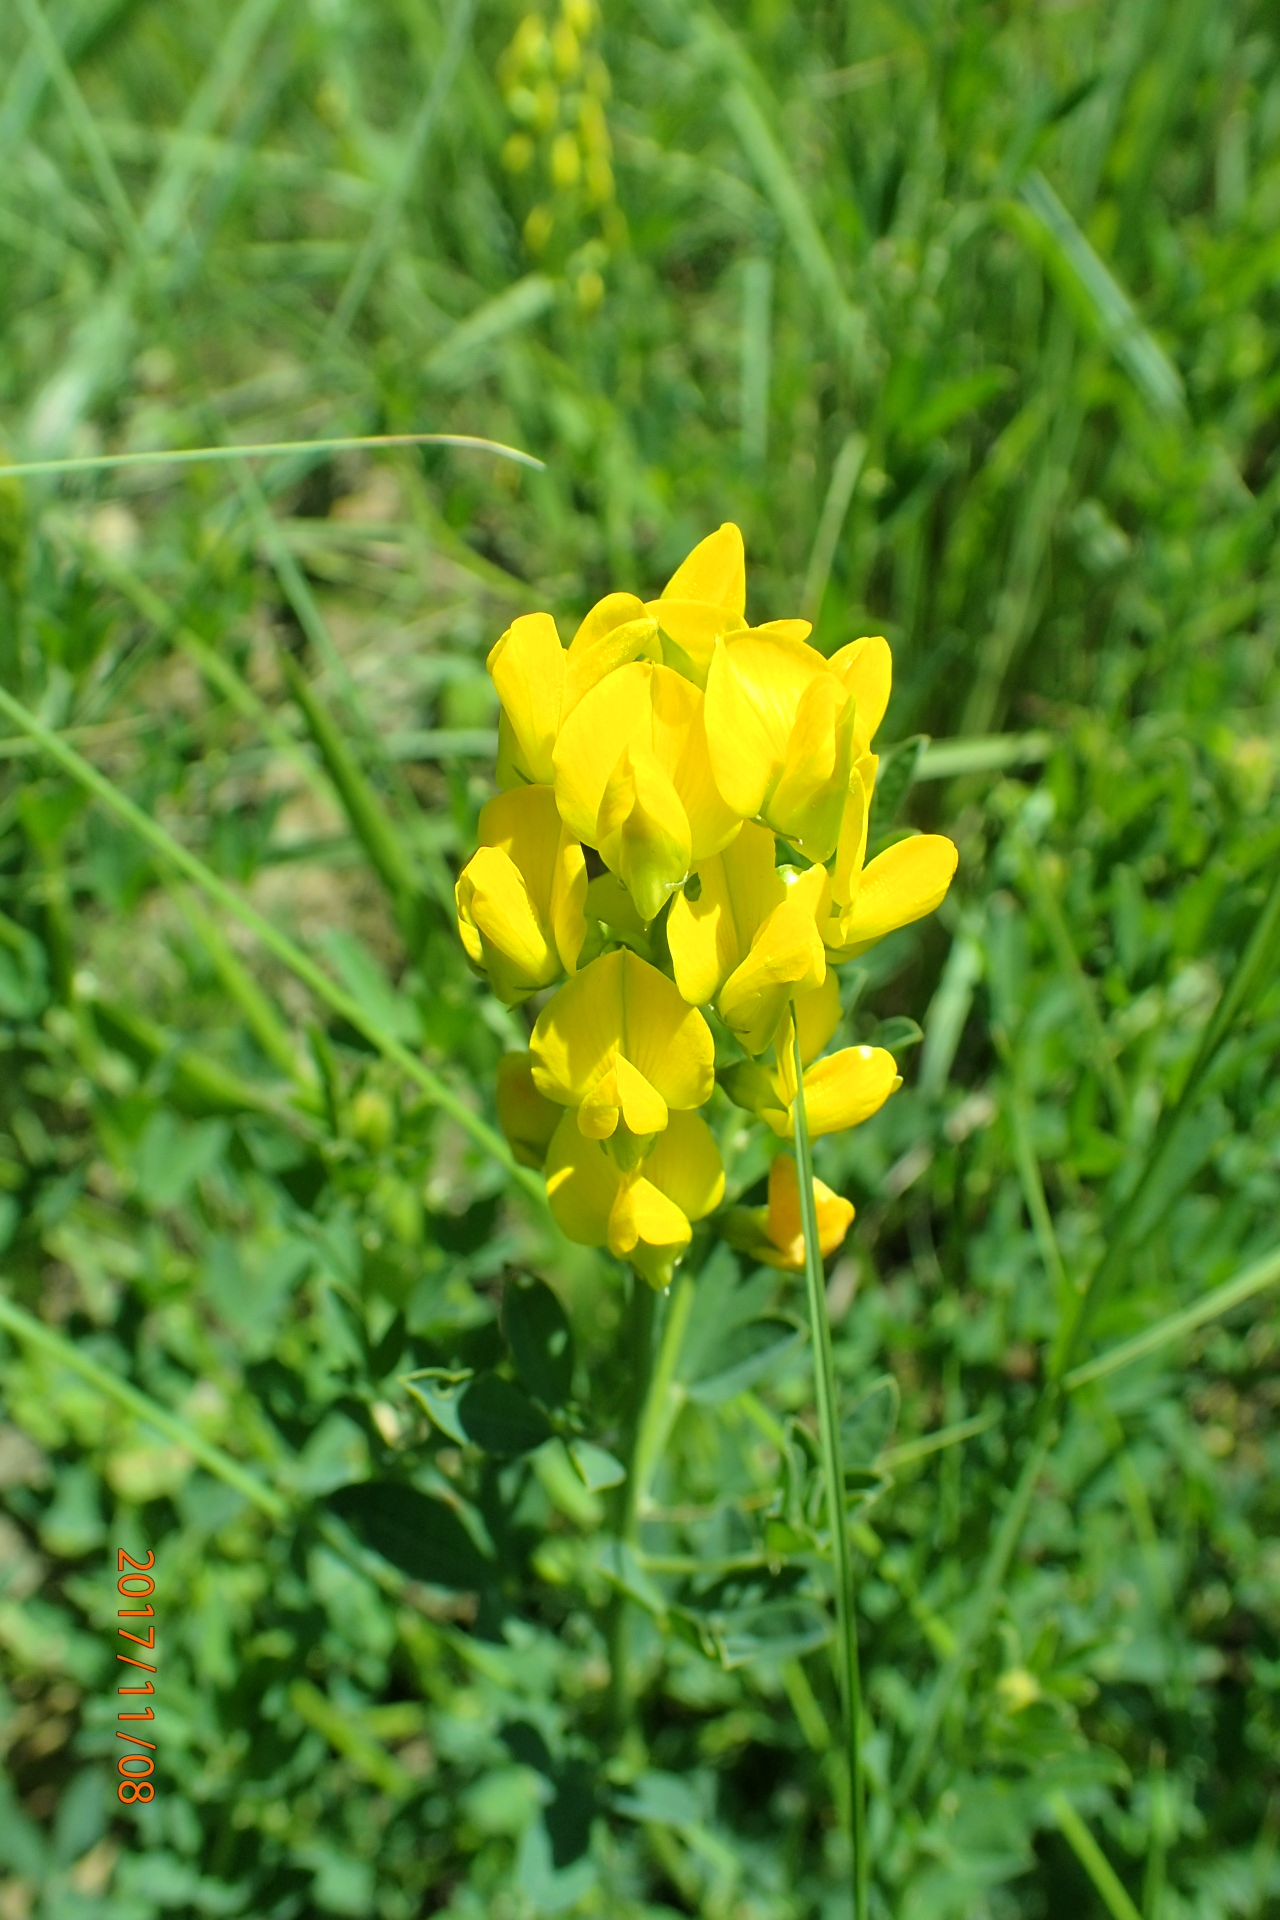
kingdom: Plantae
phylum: Tracheophyta
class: Magnoliopsida
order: Fabales
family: Fabaceae
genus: Crotalaria
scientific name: Crotalaria dura
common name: Wild lucerne
